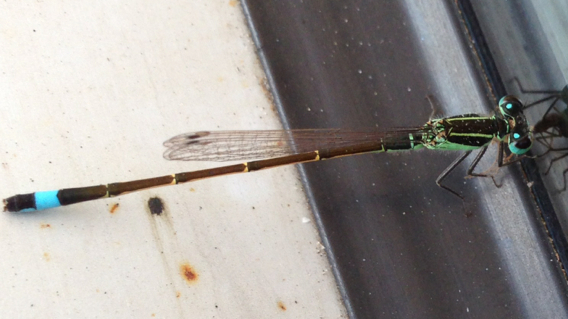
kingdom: Animalia
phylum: Arthropoda
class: Insecta
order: Odonata
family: Coenagrionidae
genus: Ischnura
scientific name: Ischnura ramburii
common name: Rambur's forktail
